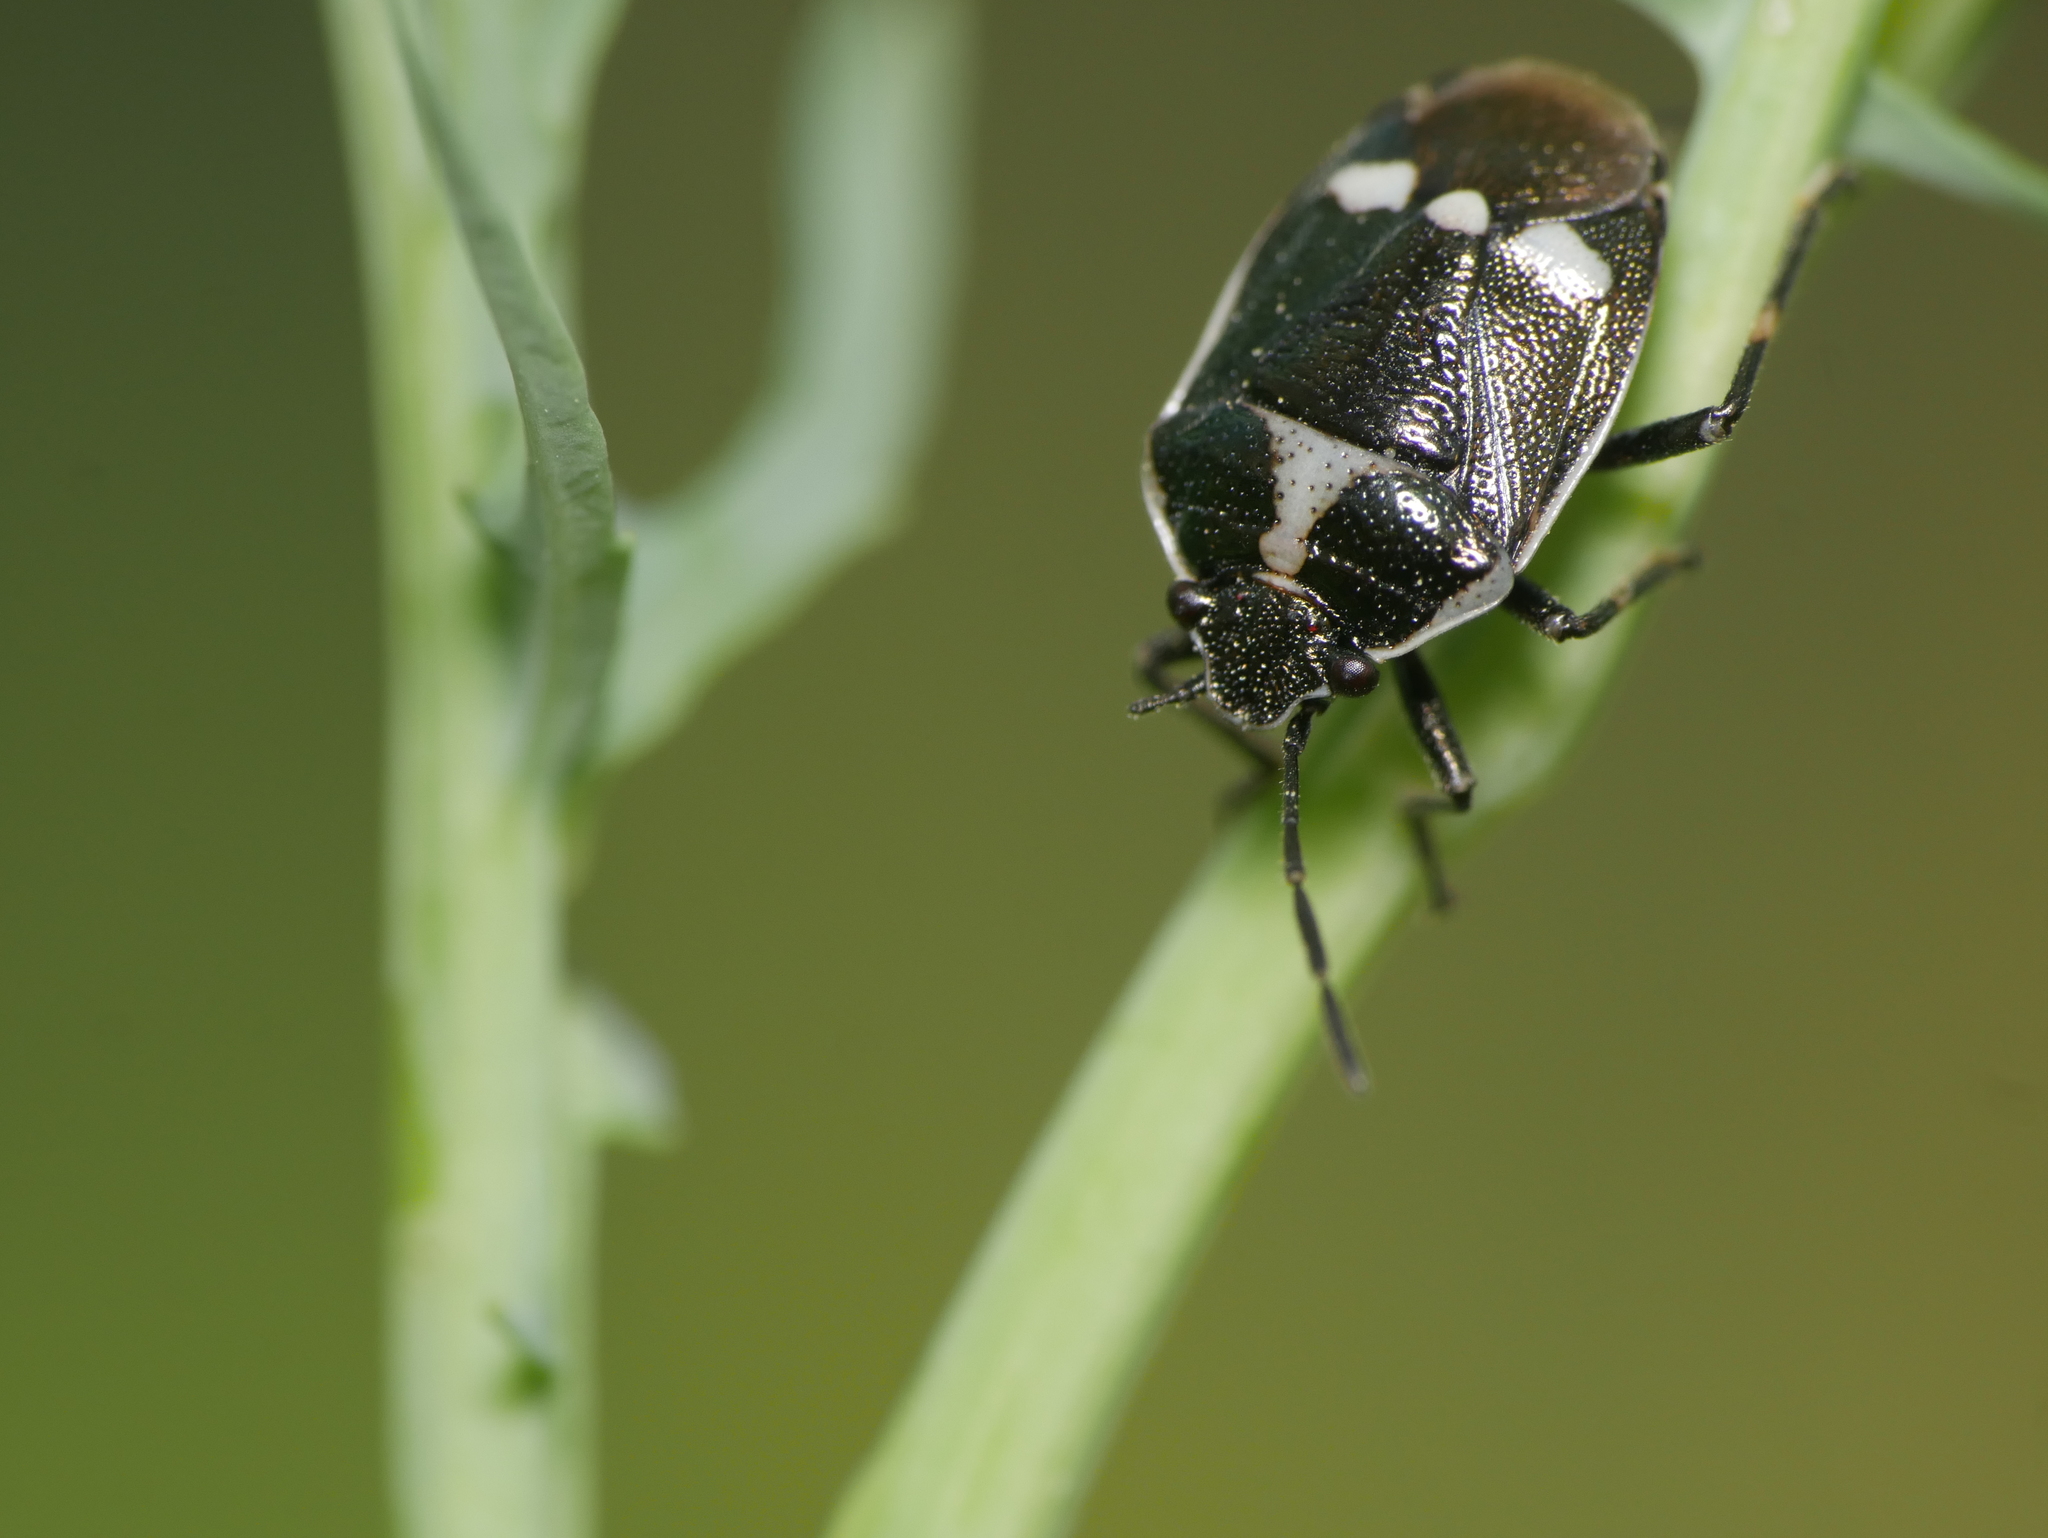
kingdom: Animalia
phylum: Arthropoda
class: Insecta
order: Hemiptera
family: Pentatomidae
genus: Eurydema
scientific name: Eurydema oleracea
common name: Cabbage bug
